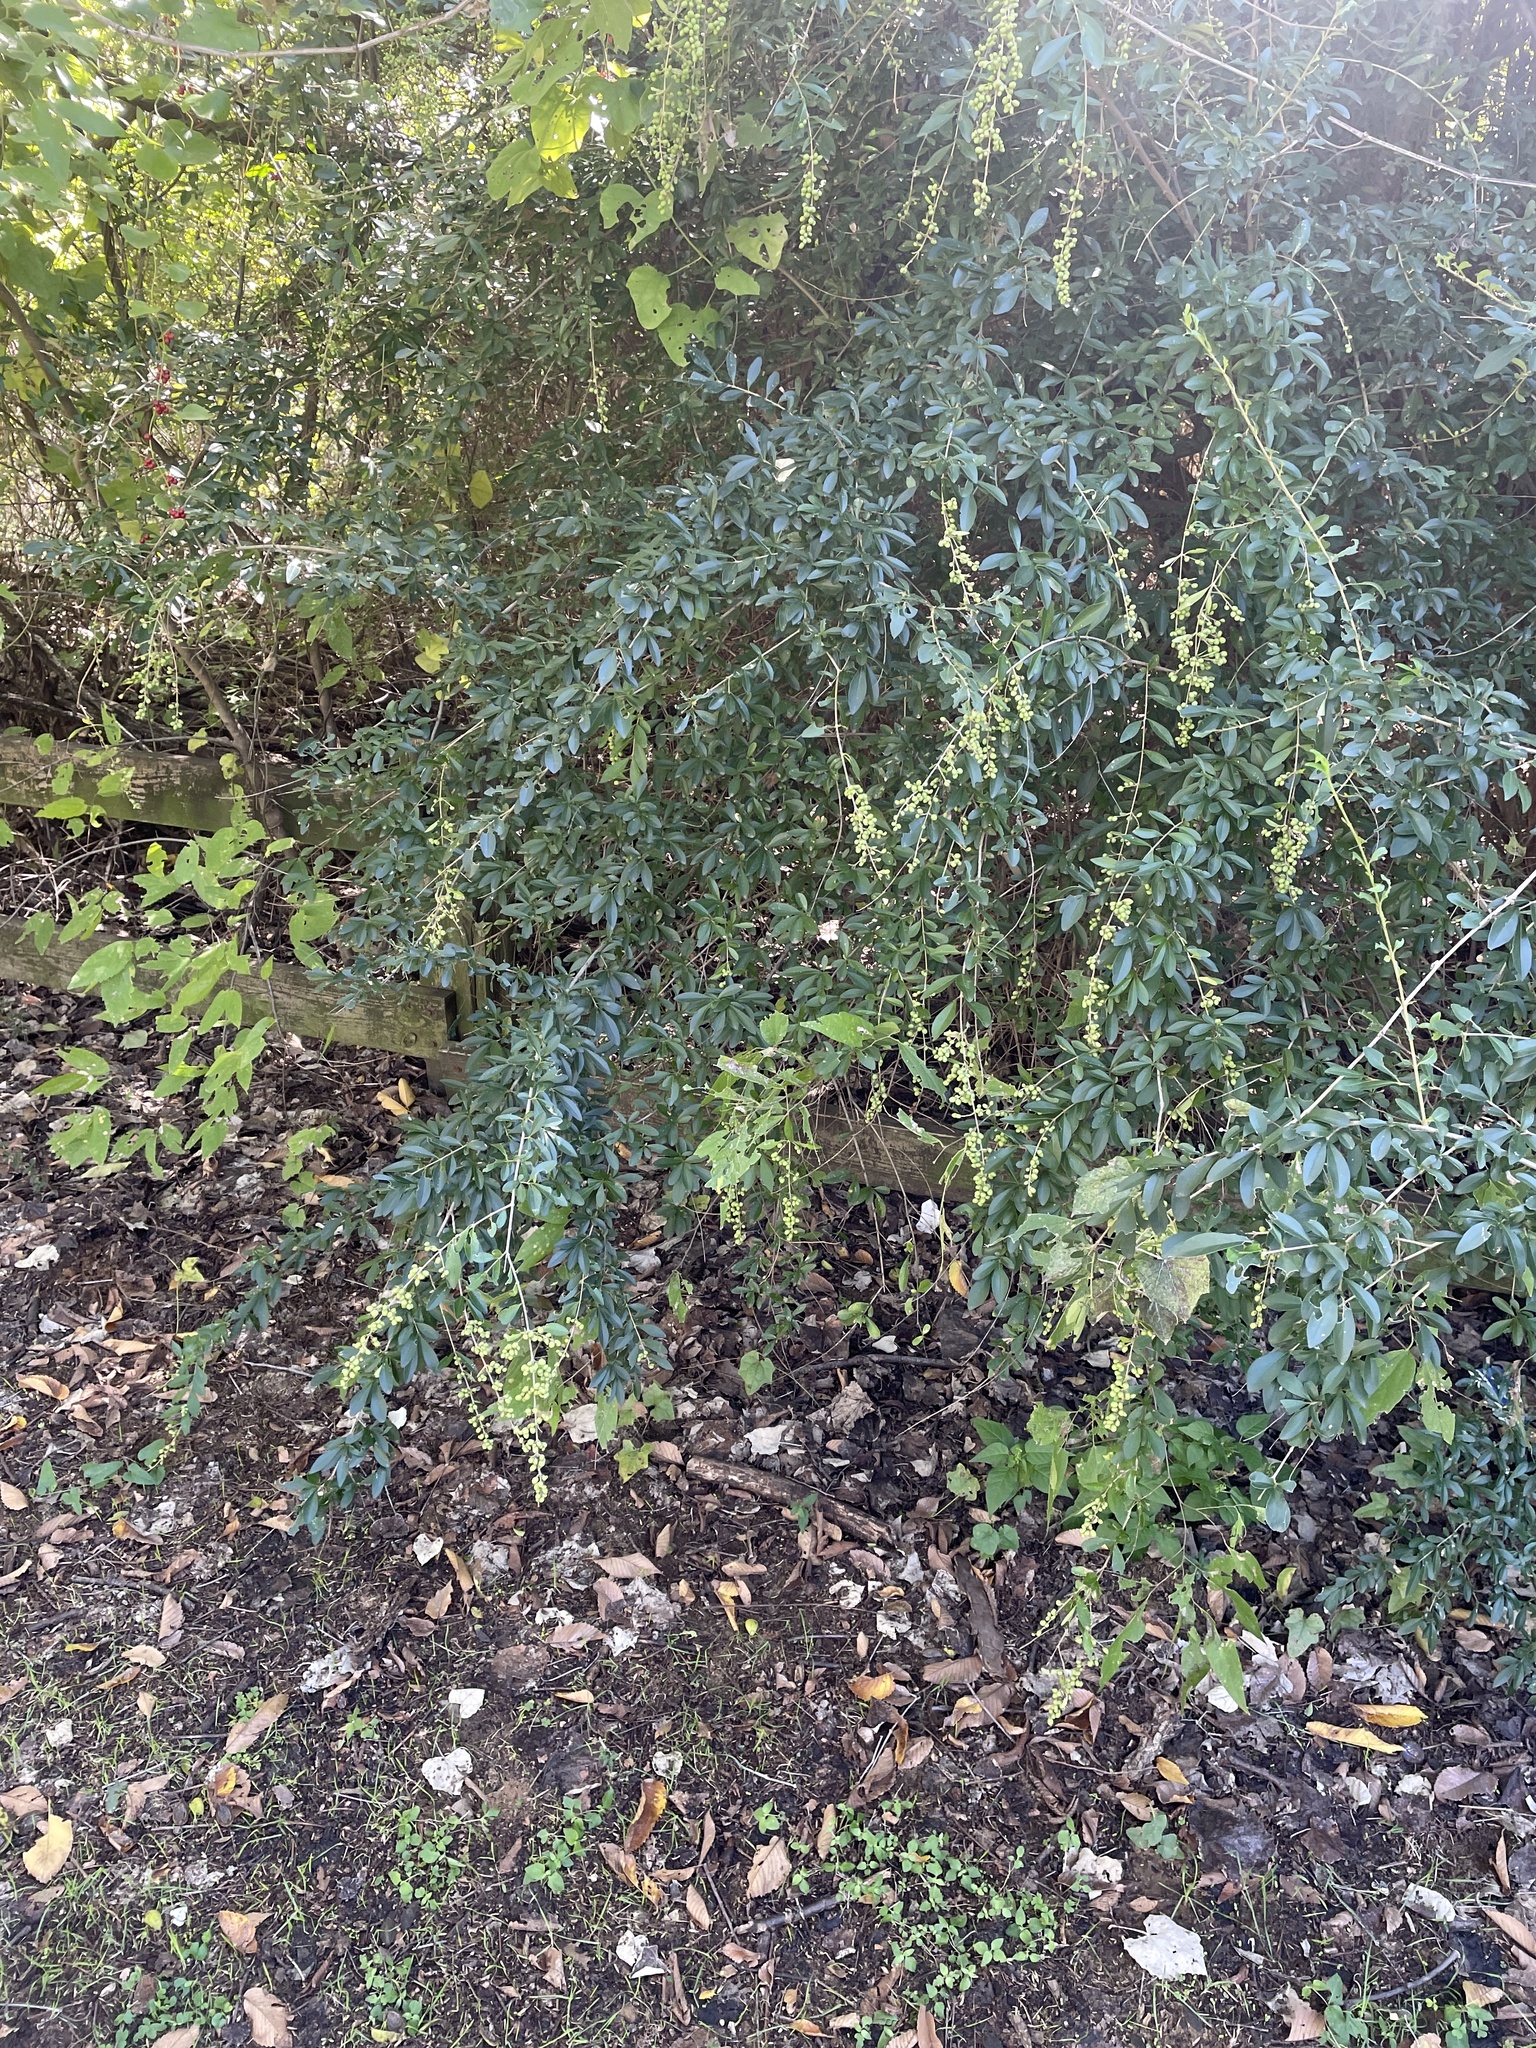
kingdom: Plantae
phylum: Tracheophyta
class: Magnoliopsida
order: Lamiales
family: Oleaceae
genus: Ligustrum
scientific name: Ligustrum quihoui
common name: Waxyleaf privet
